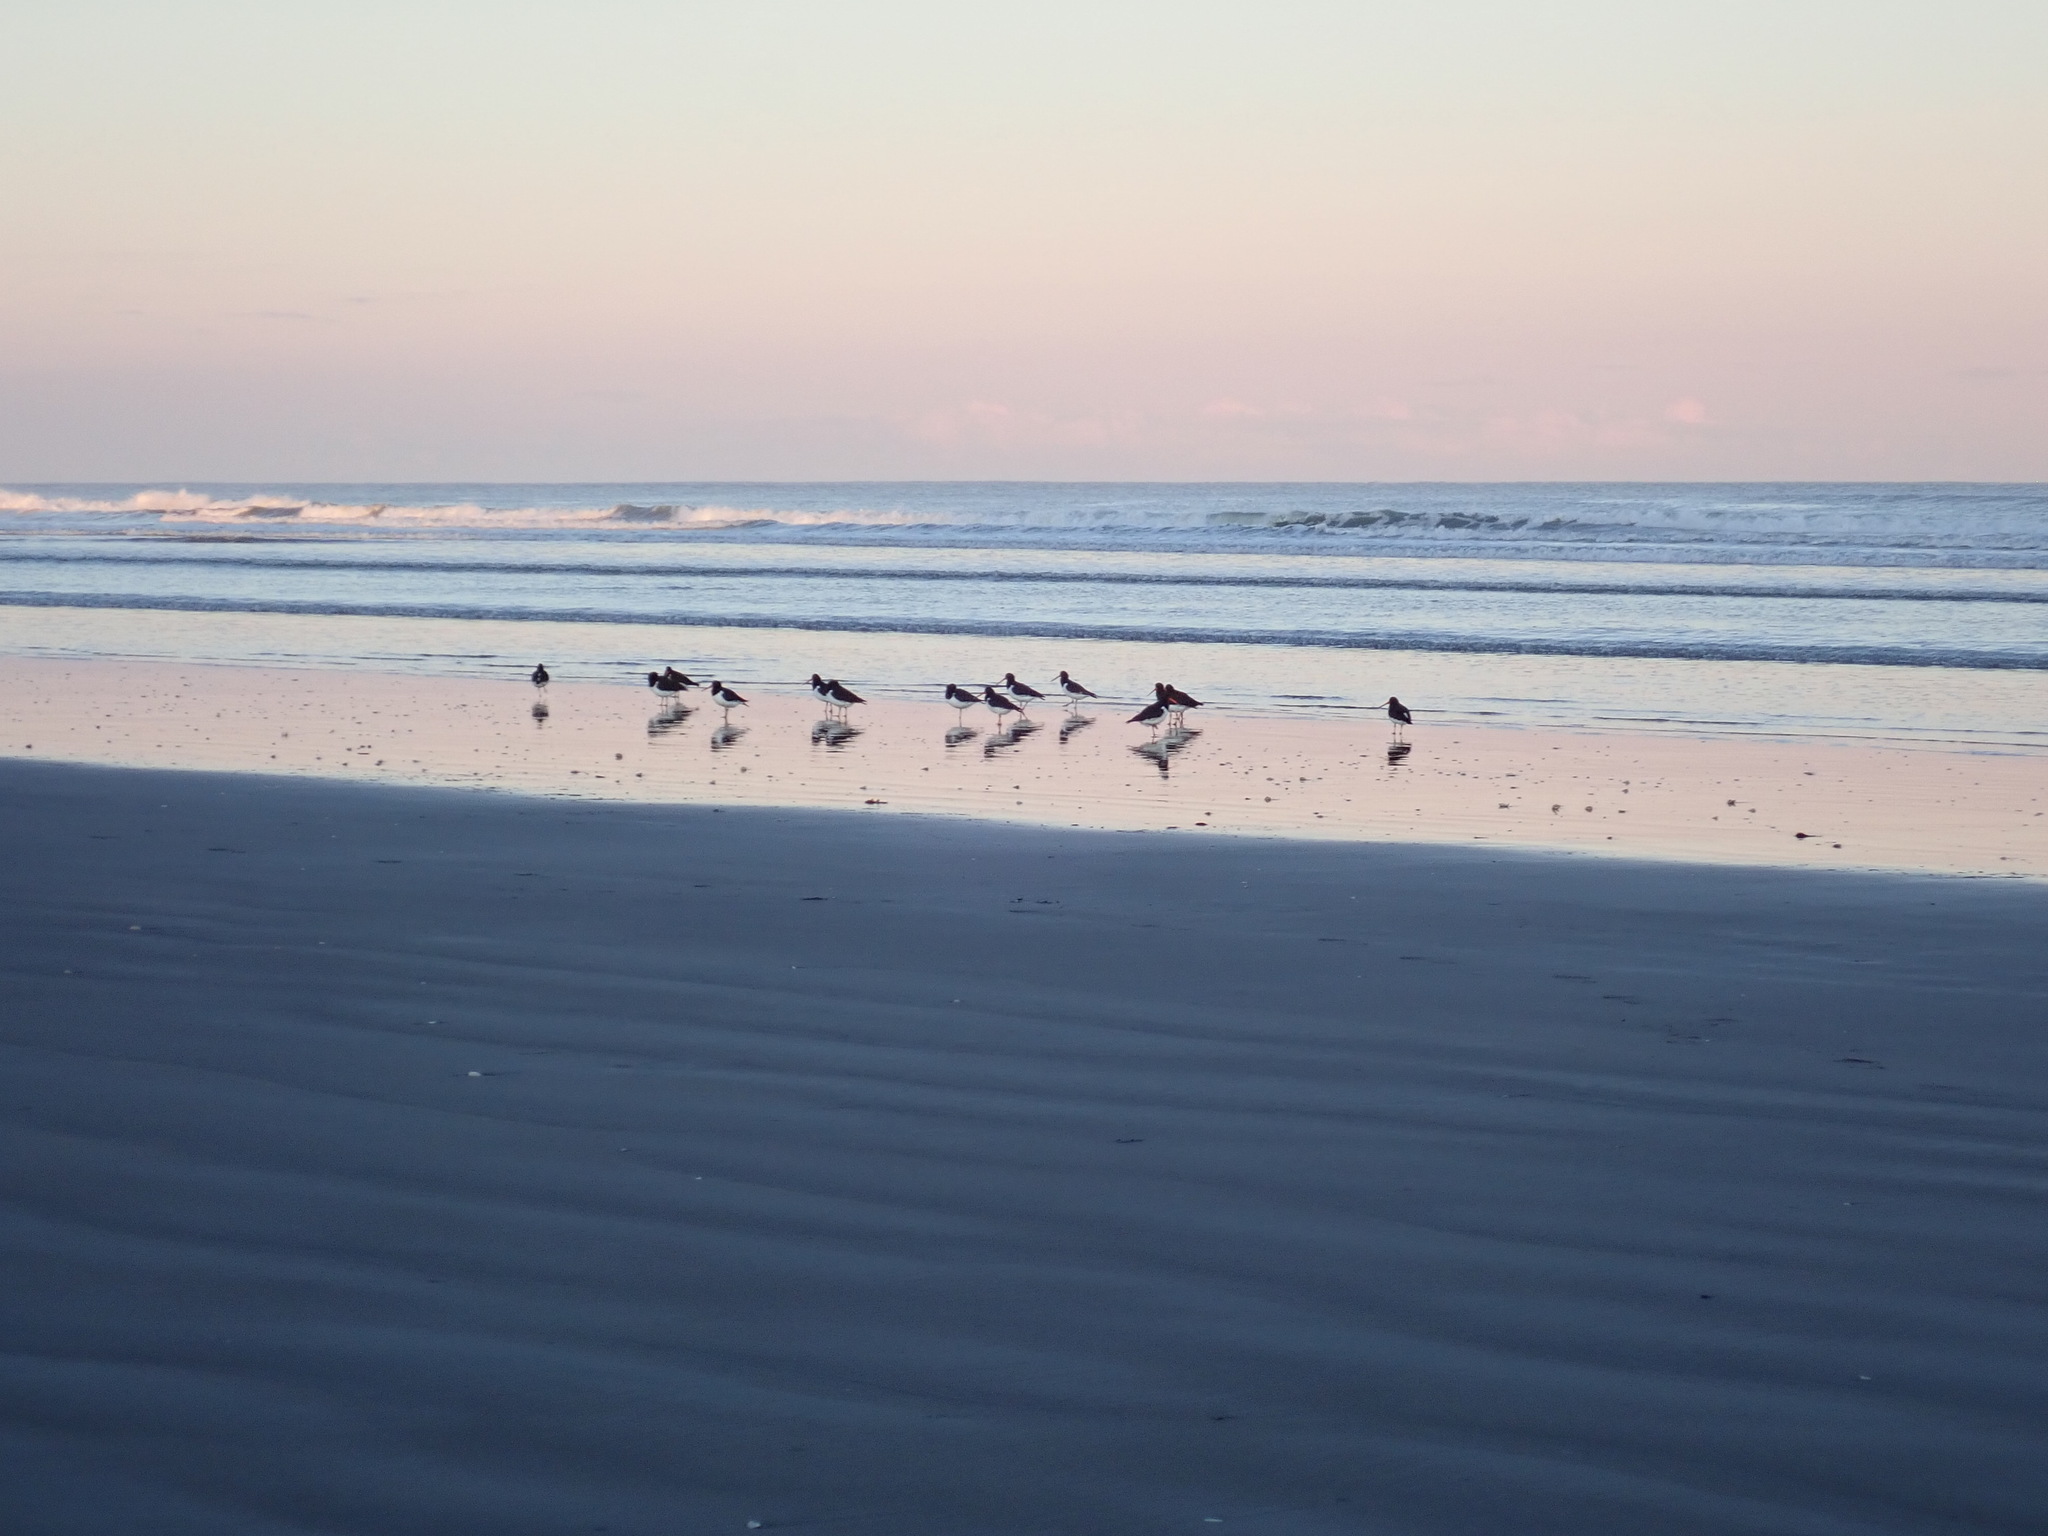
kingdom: Animalia
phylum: Chordata
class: Aves
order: Charadriiformes
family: Haematopodidae
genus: Haematopus
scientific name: Haematopus finschi
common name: South island oystercatcher
